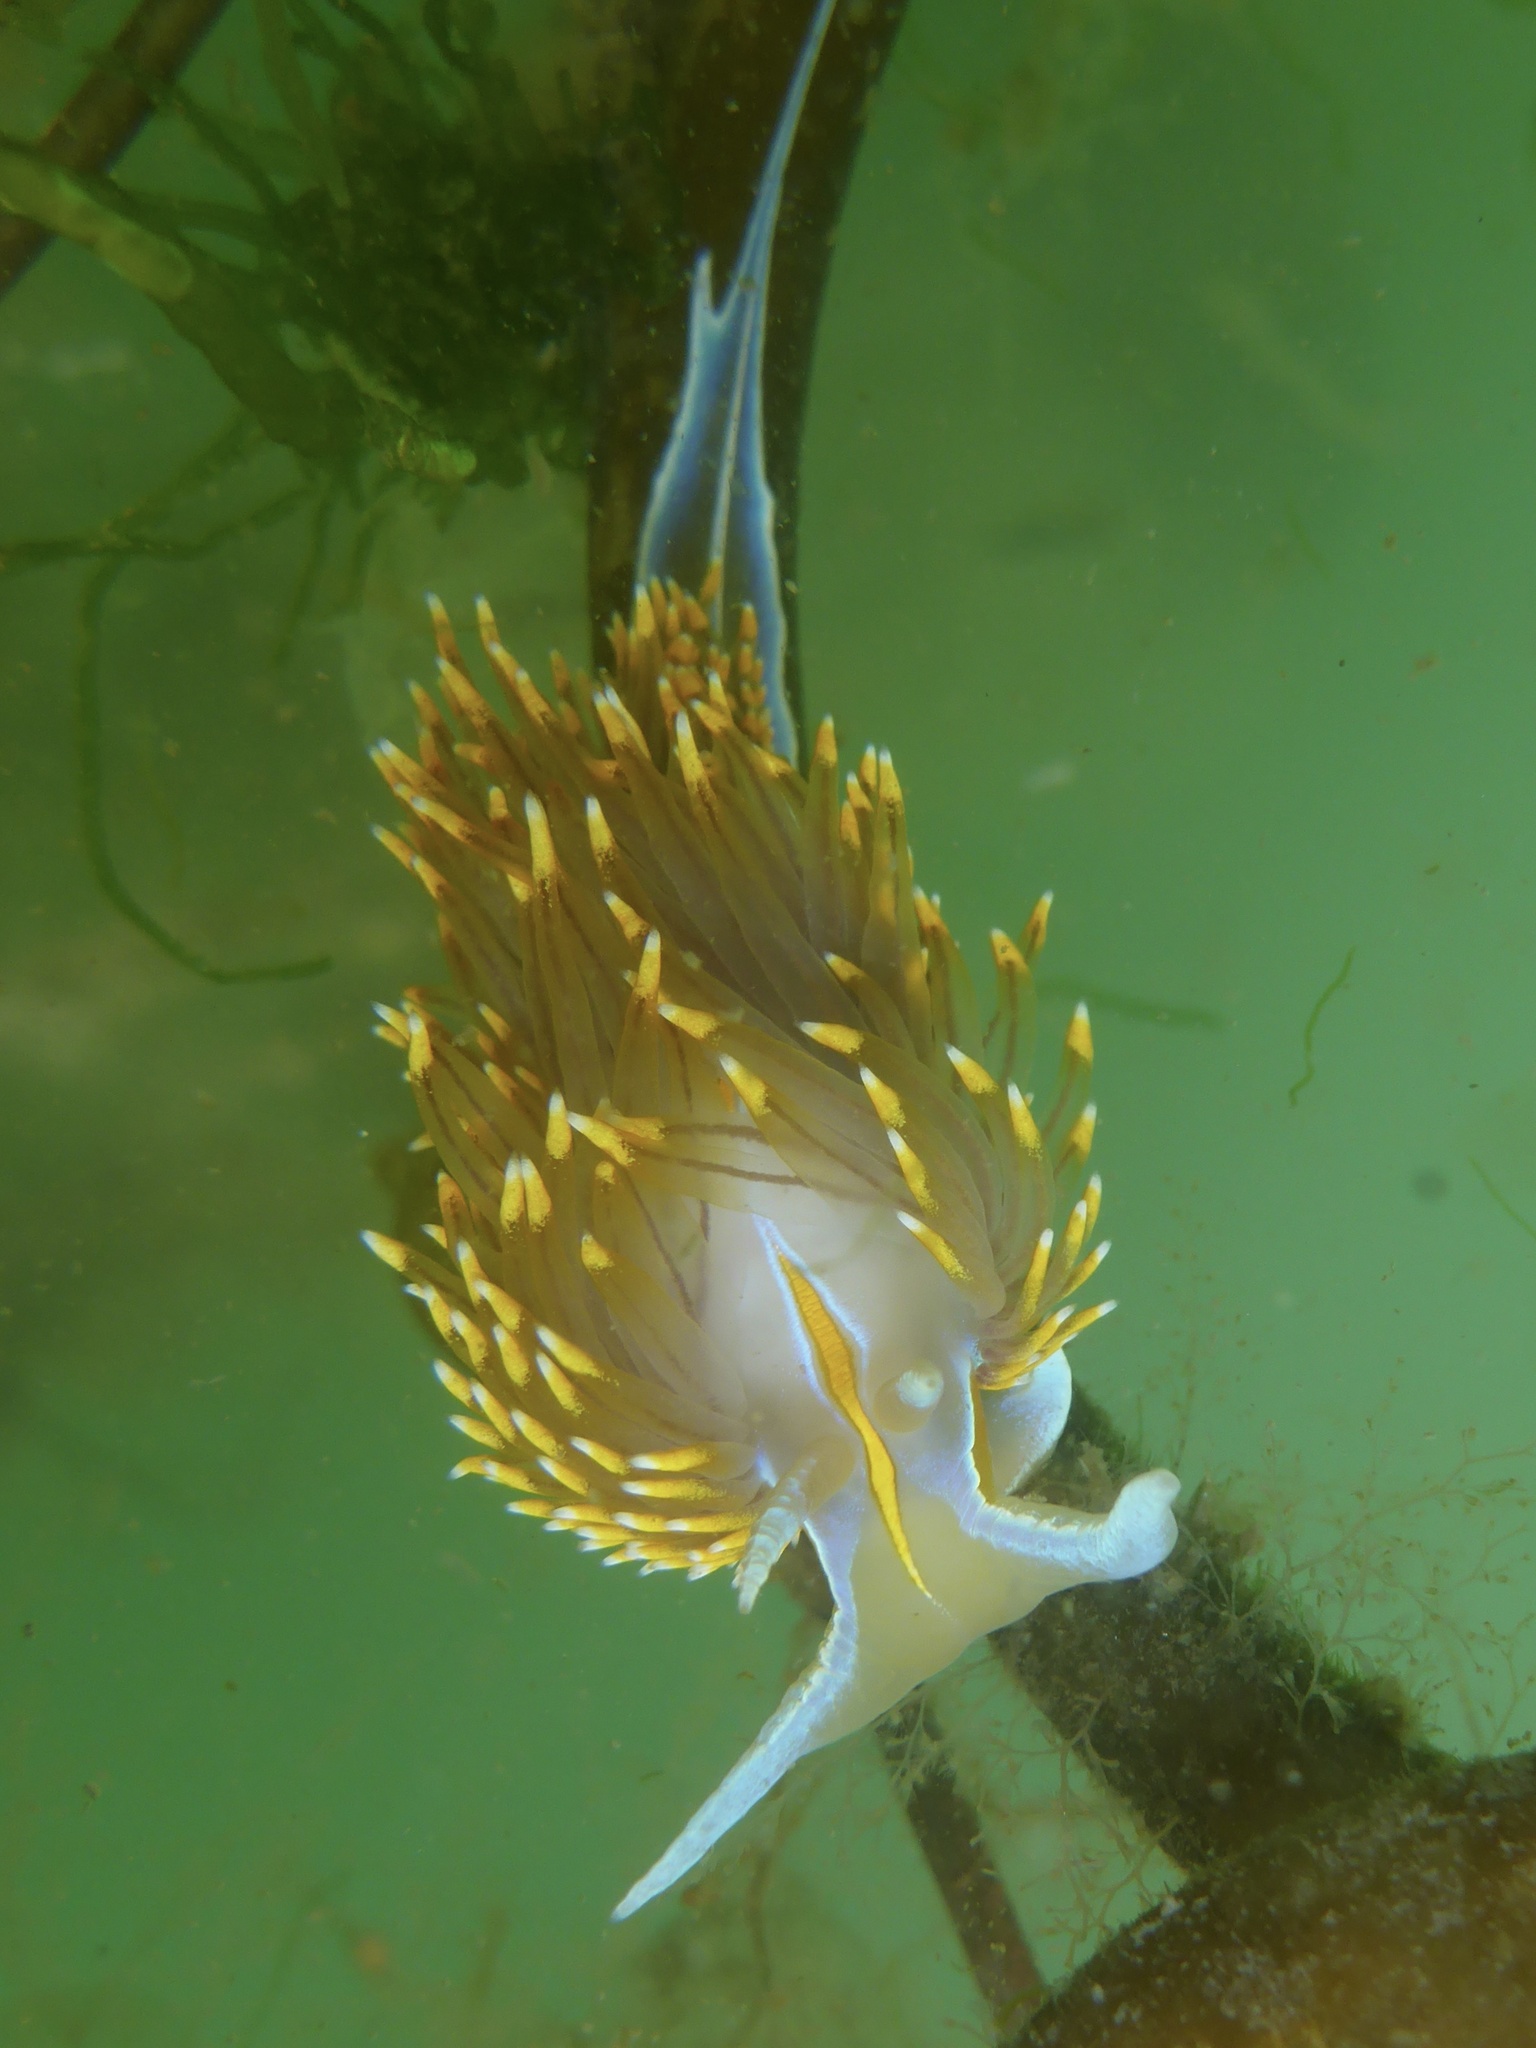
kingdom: Animalia
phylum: Mollusca
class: Gastropoda
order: Nudibranchia
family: Myrrhinidae
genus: Hermissenda
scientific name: Hermissenda opalescens
